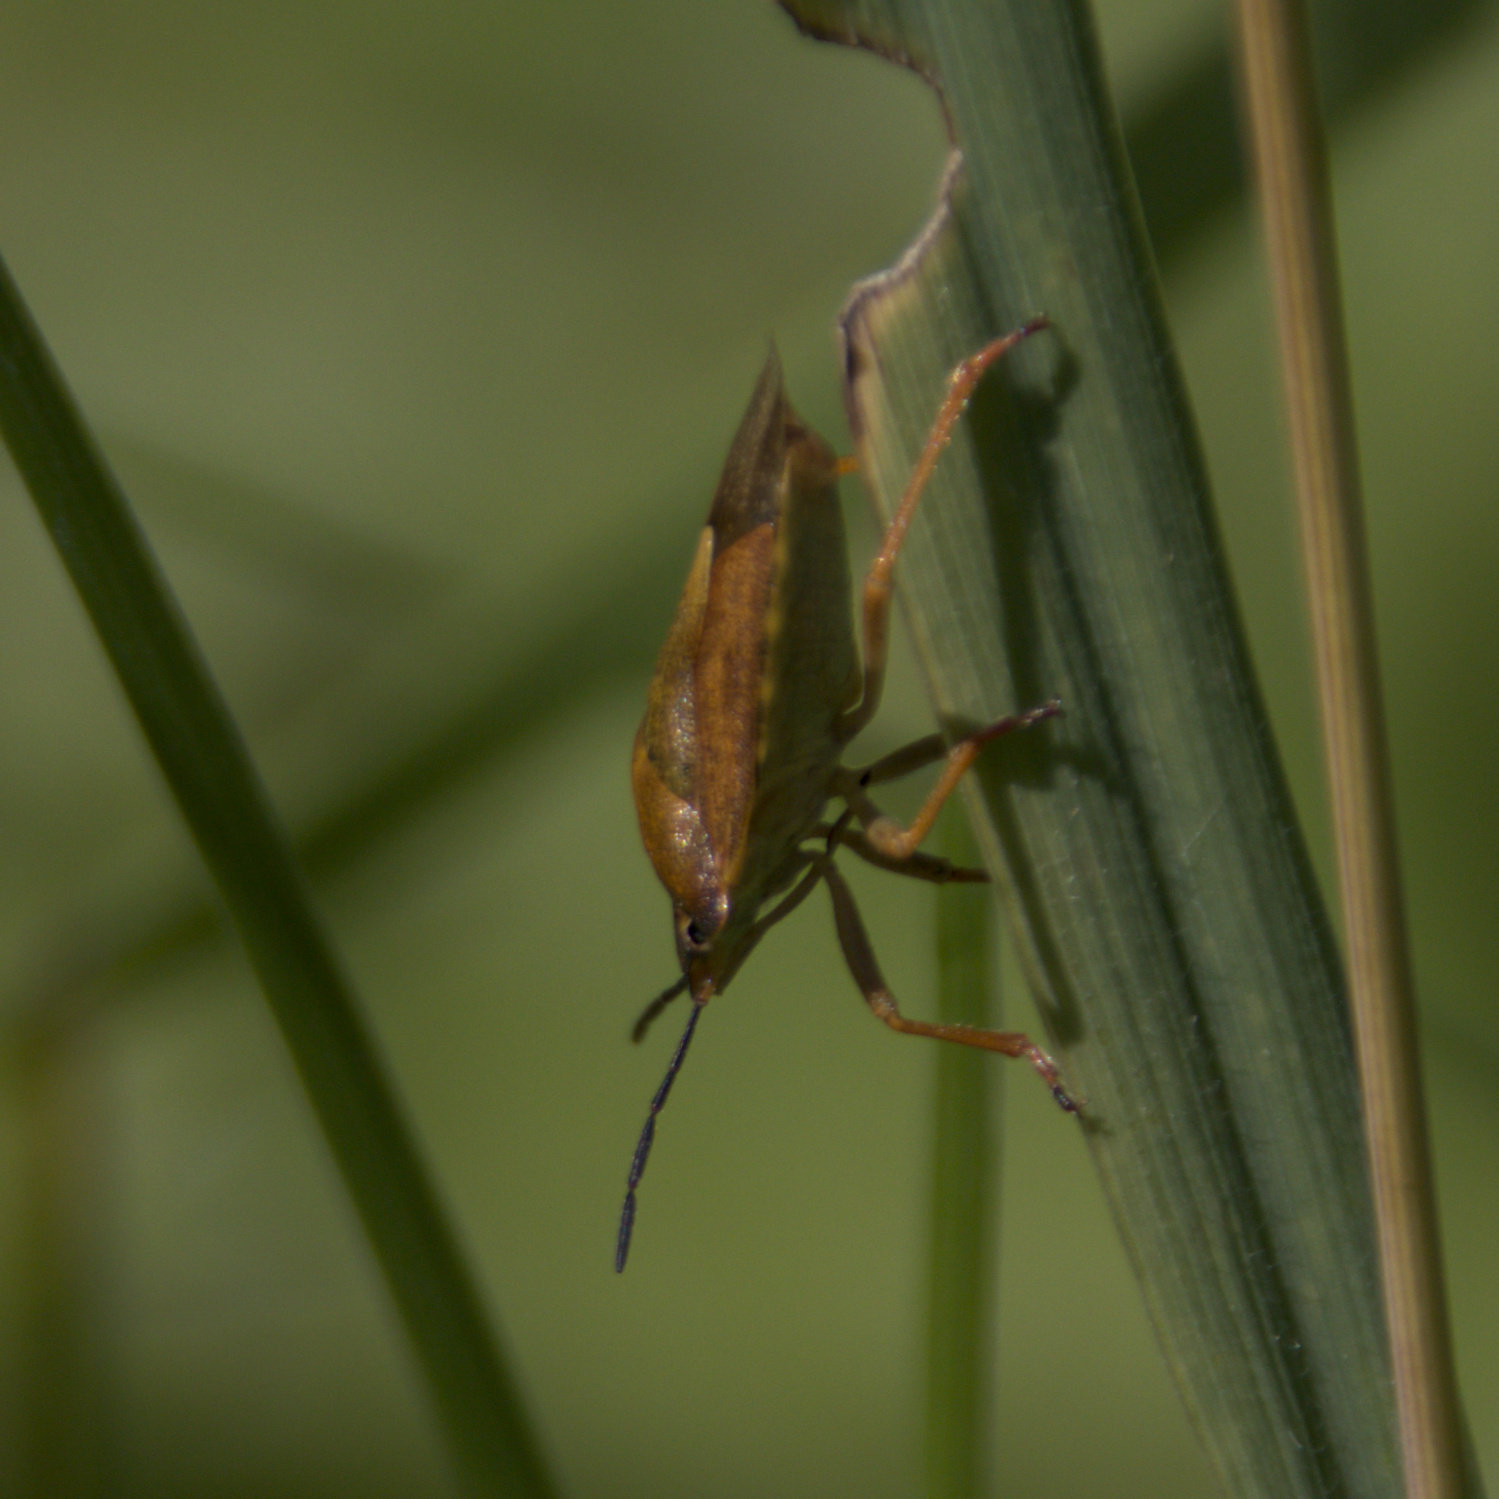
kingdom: Animalia
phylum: Arthropoda
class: Insecta
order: Hemiptera
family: Pentatomidae
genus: Carpocoris
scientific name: Carpocoris purpureipennis
